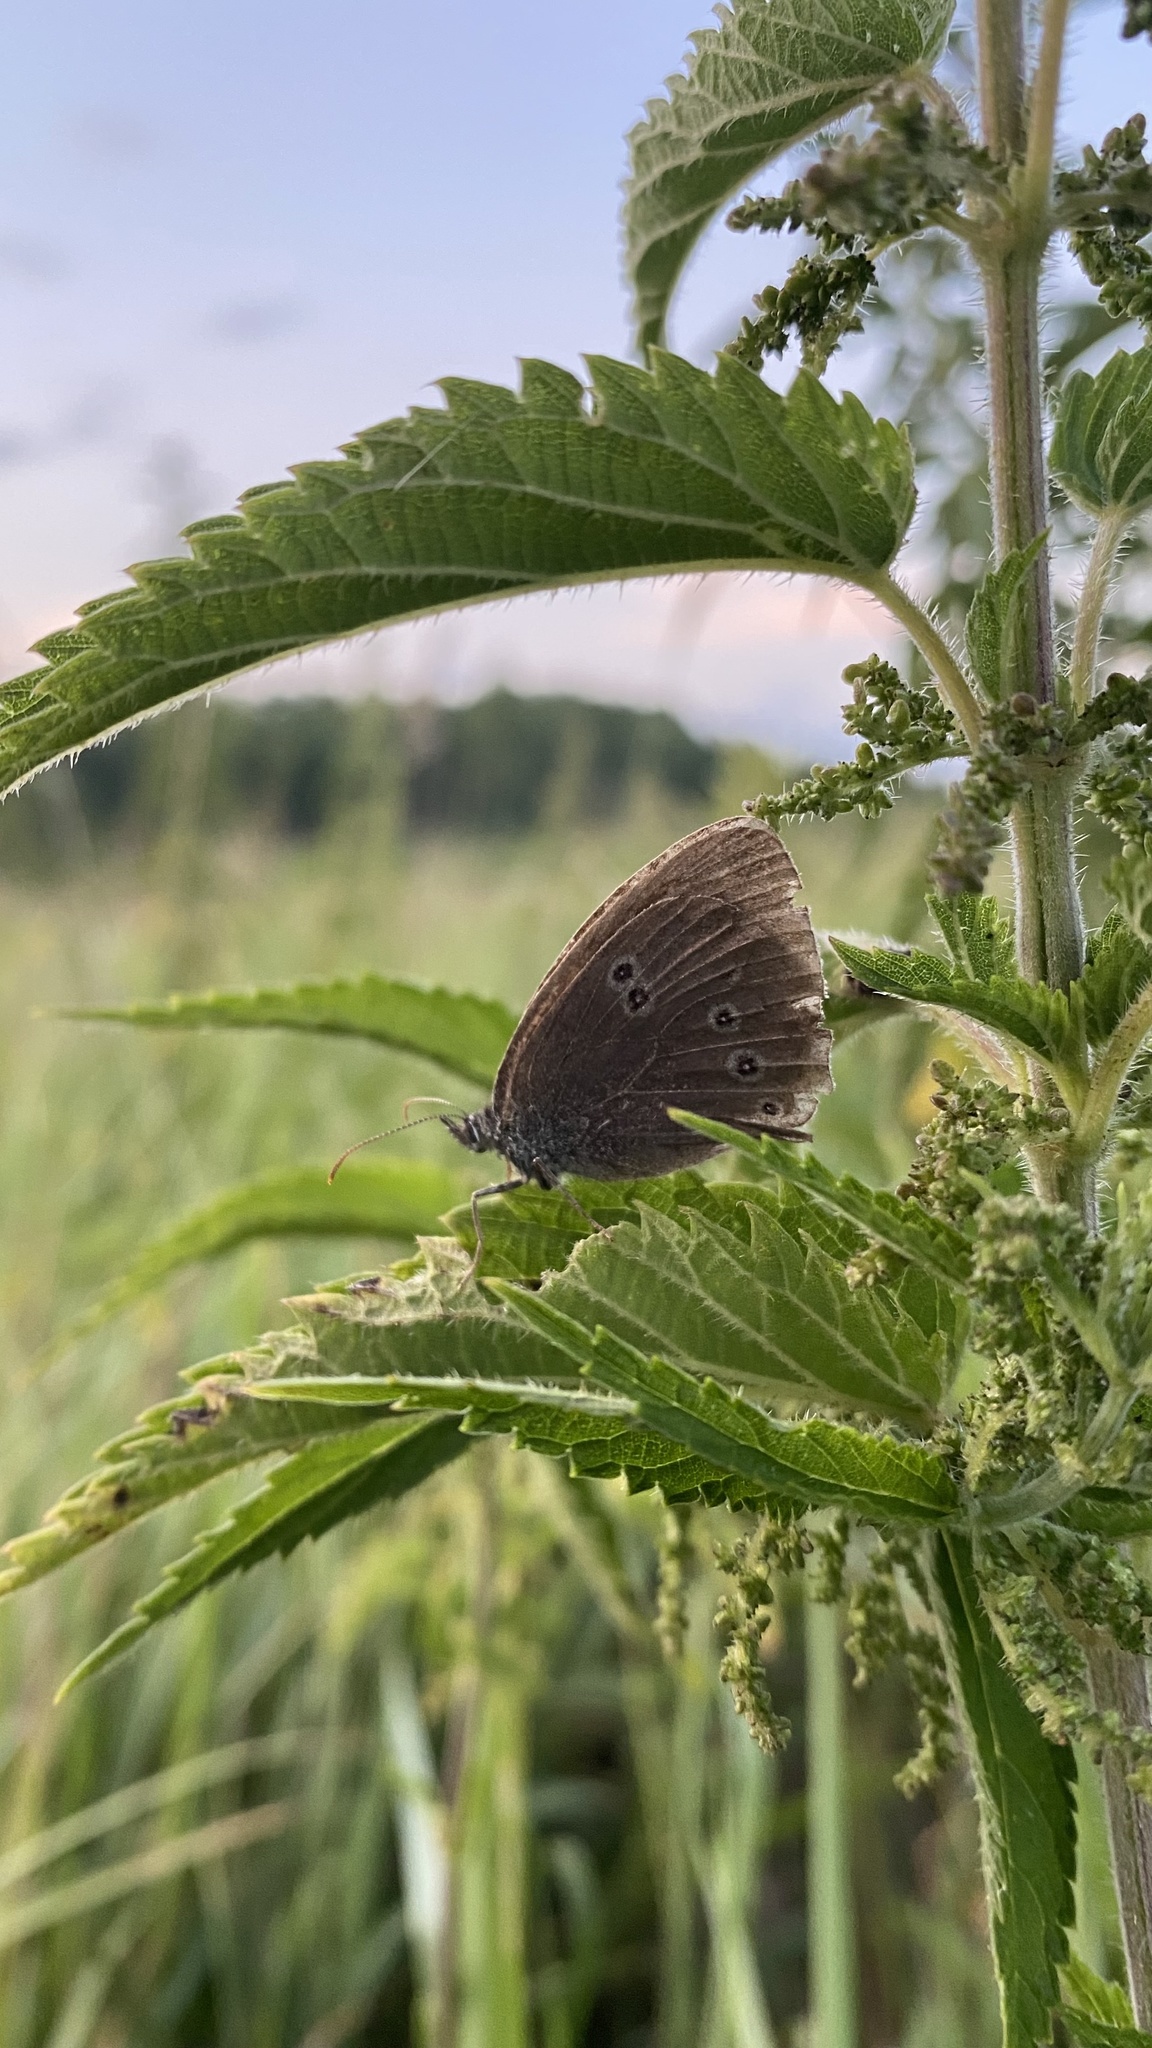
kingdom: Animalia
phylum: Arthropoda
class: Insecta
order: Lepidoptera
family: Nymphalidae
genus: Aphantopus
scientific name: Aphantopus hyperantus
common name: Ringlet
